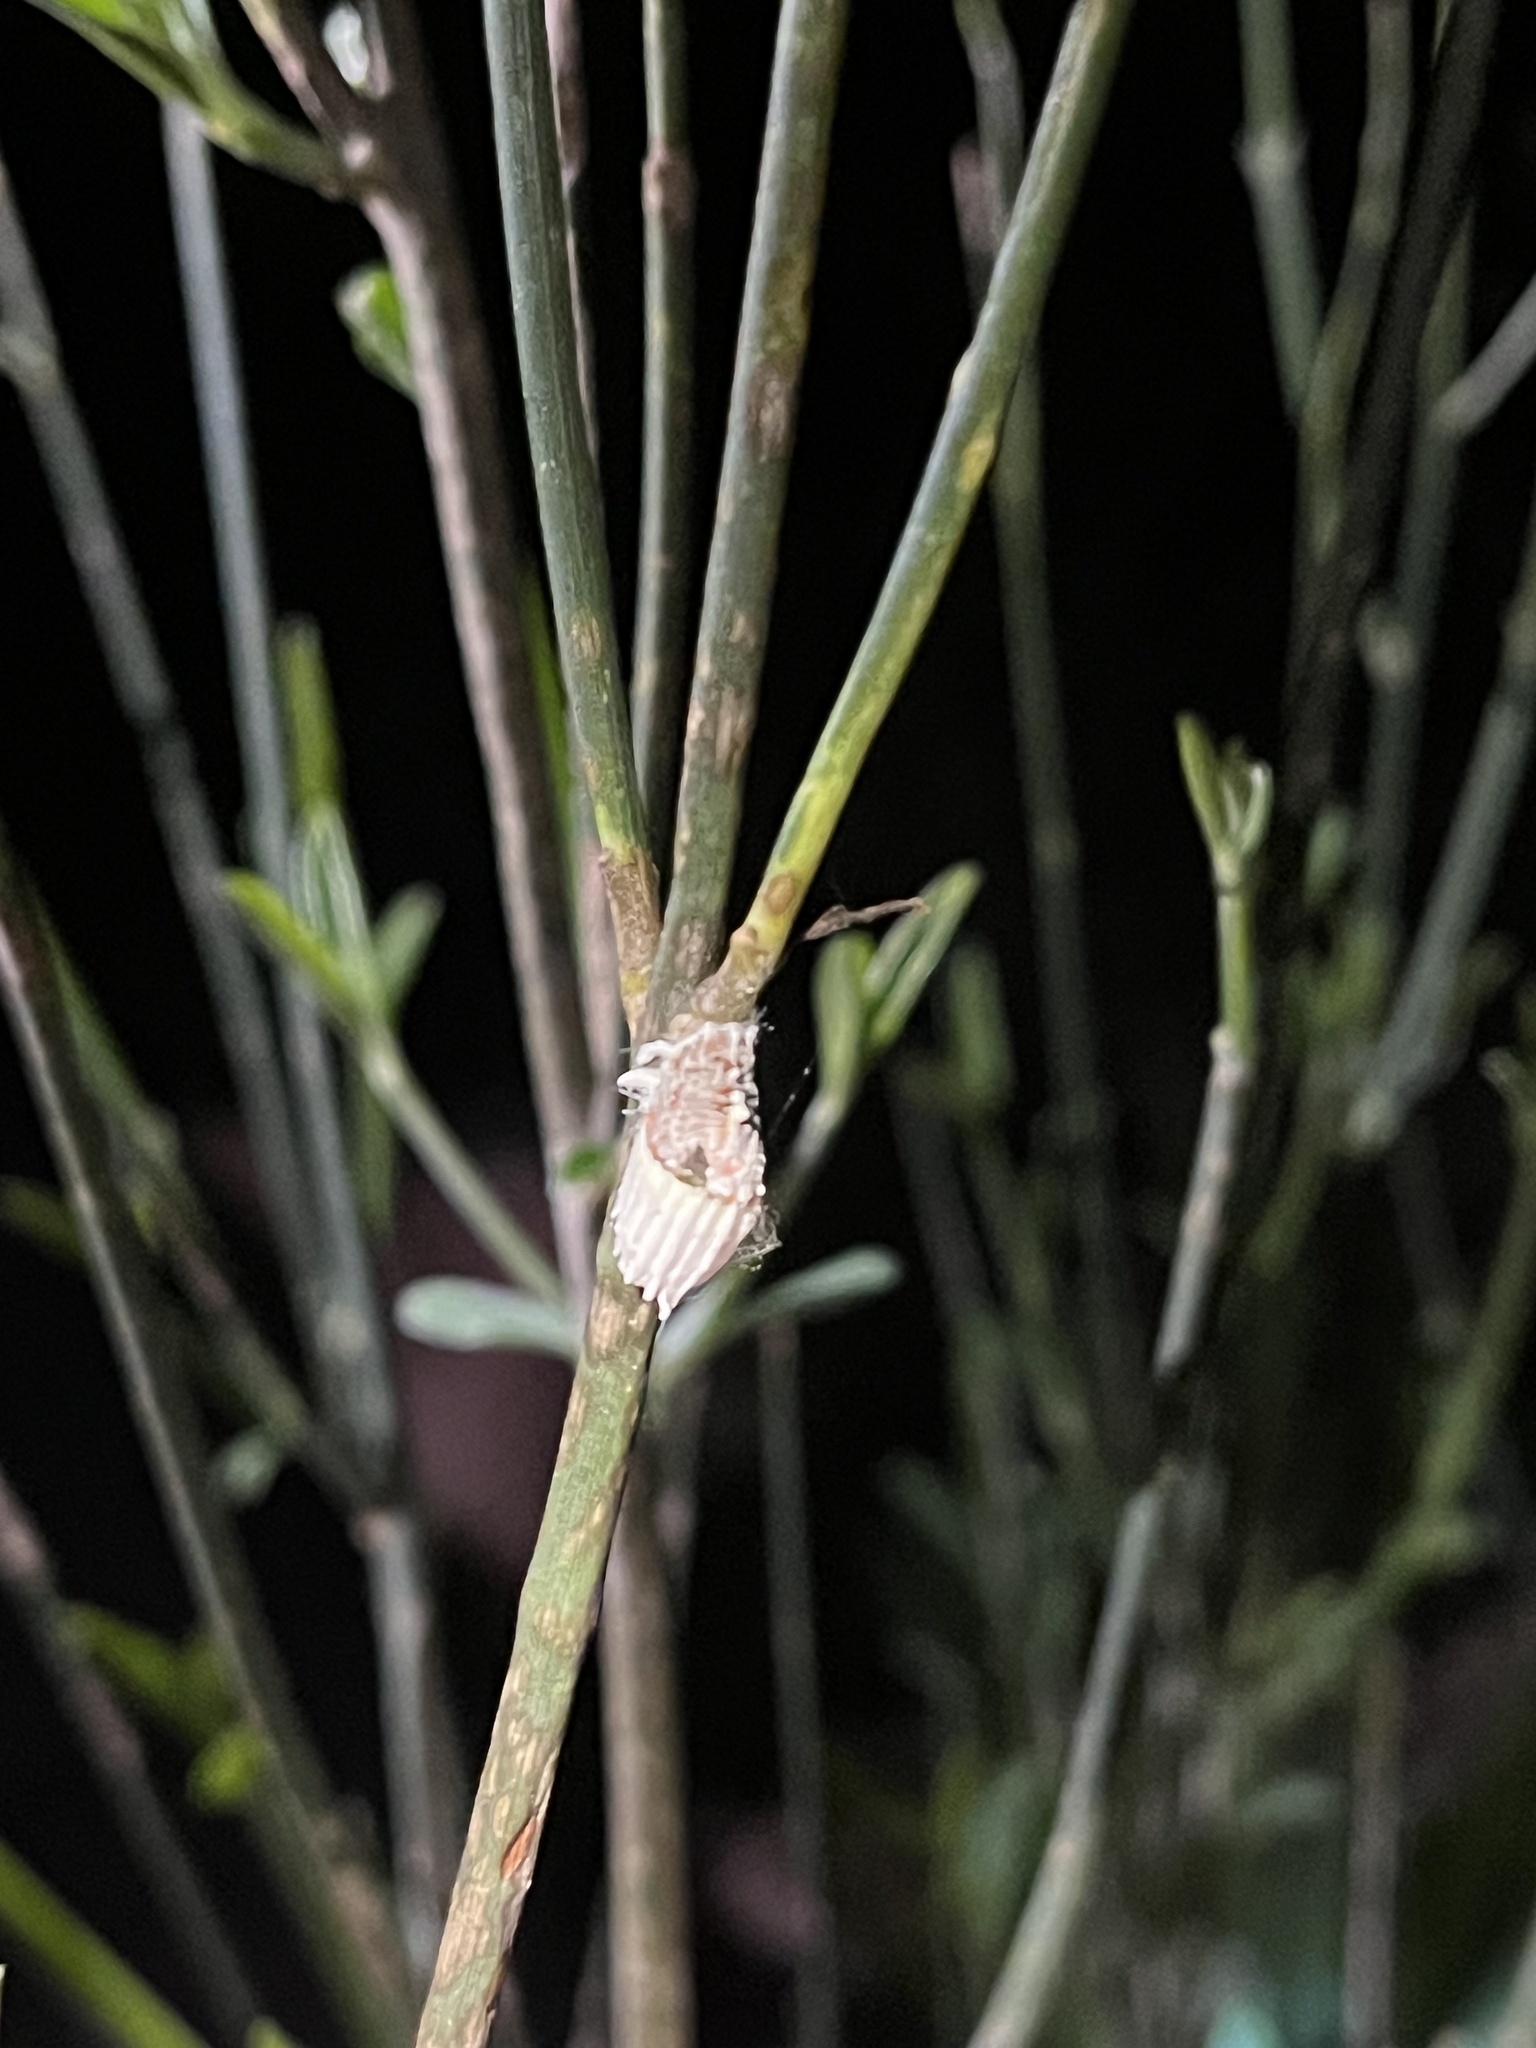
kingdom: Animalia
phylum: Arthropoda
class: Insecta
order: Hemiptera
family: Margarodidae
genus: Icerya
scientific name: Icerya purchasi
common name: Cottony cushion scale
